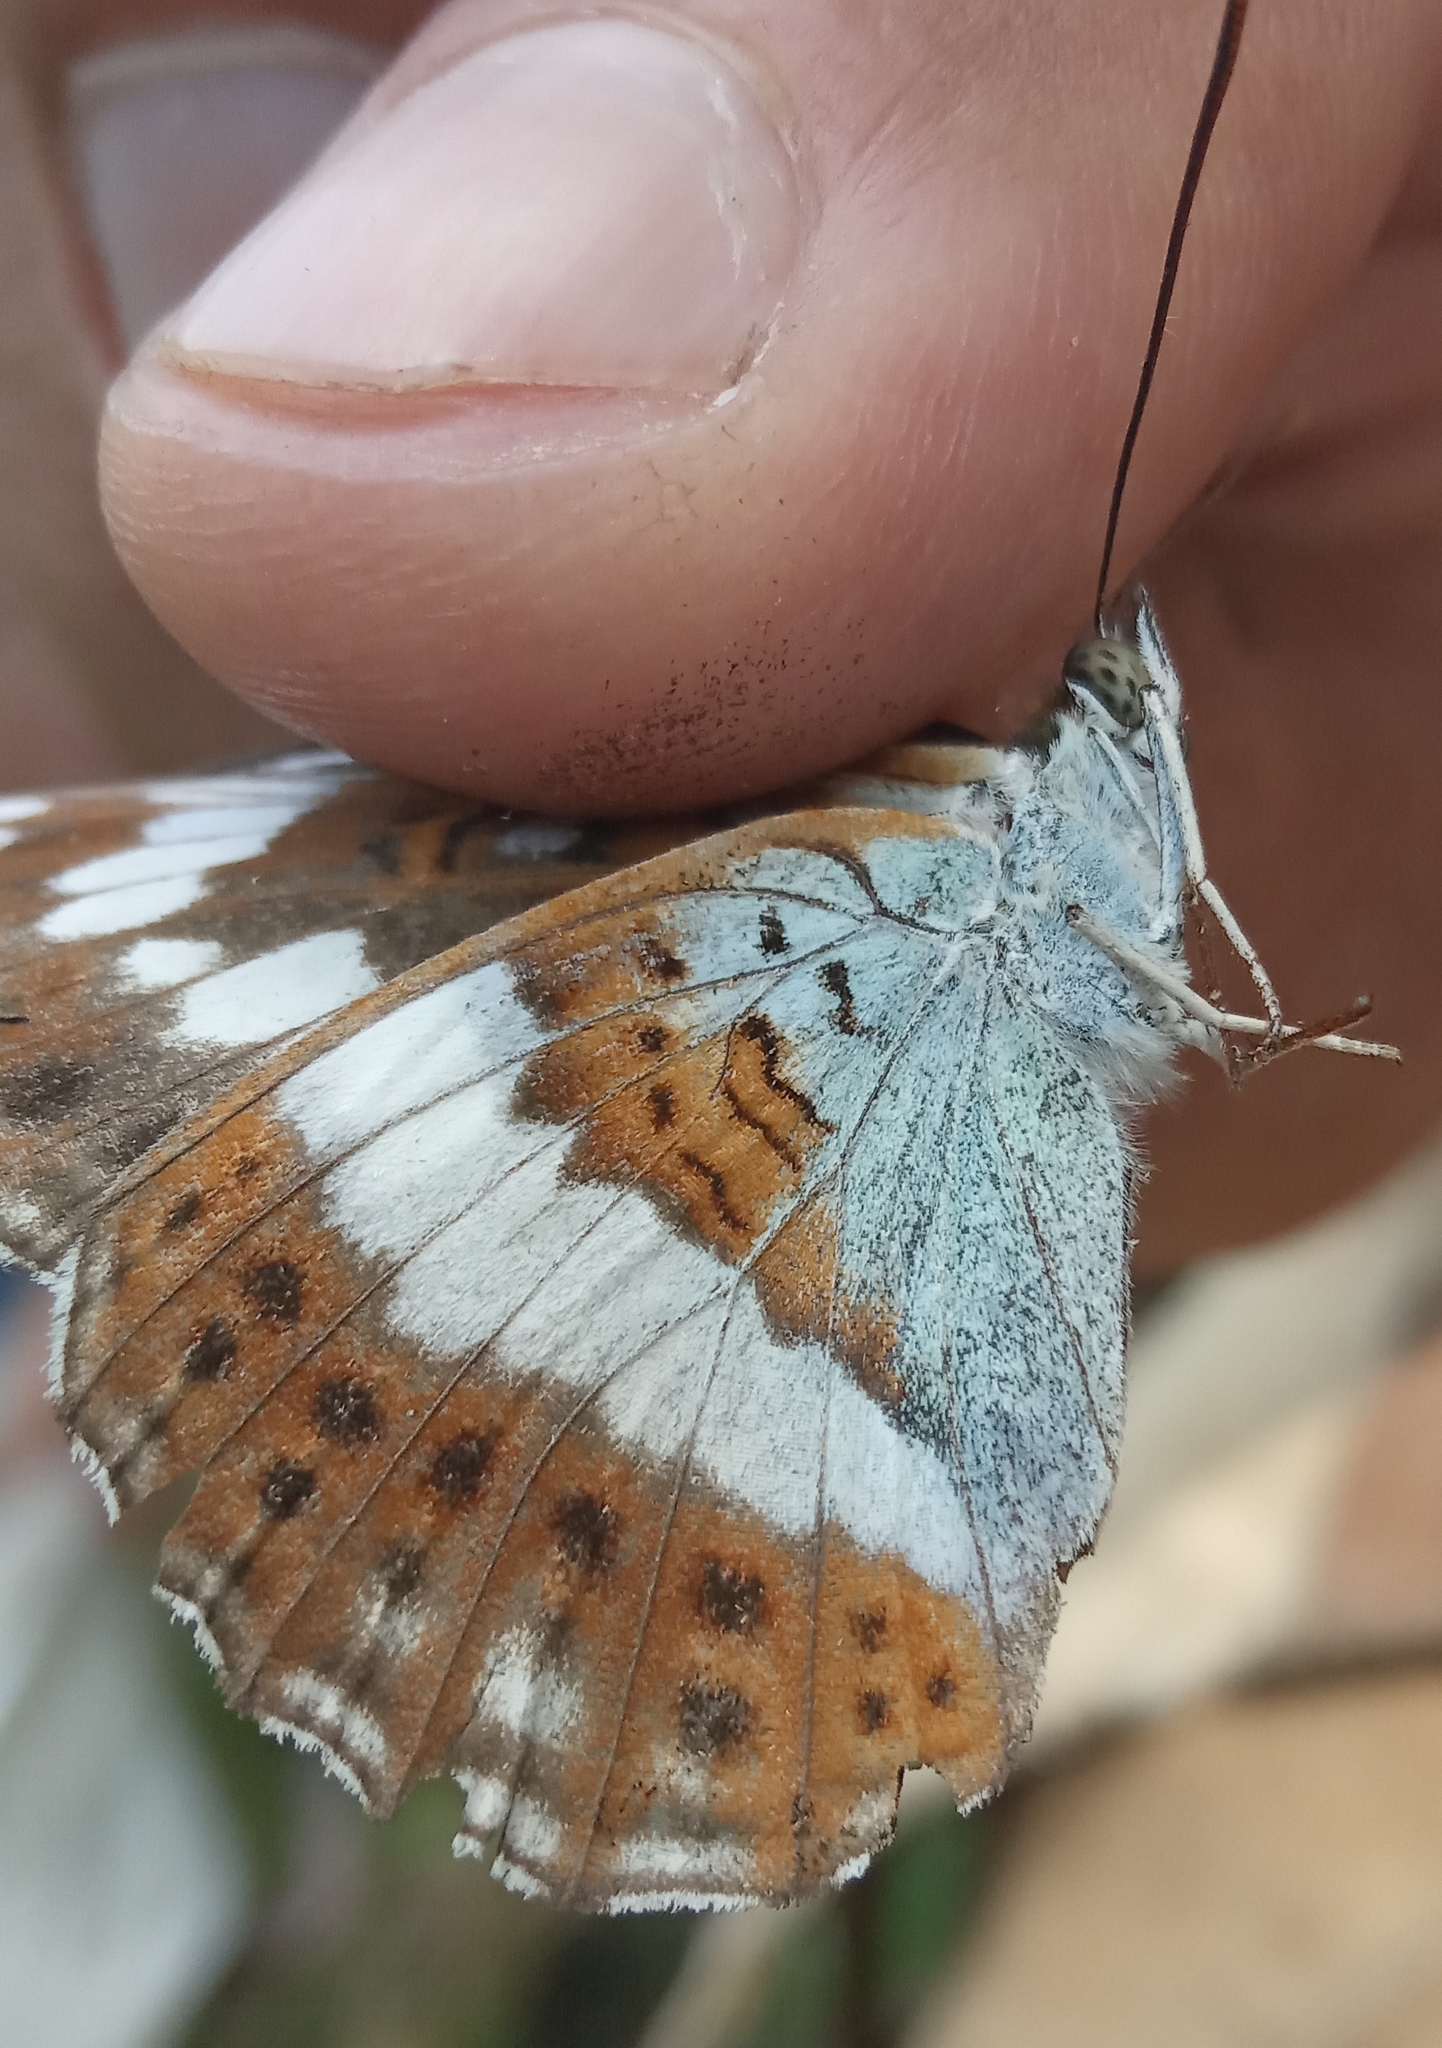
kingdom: Animalia
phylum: Arthropoda
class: Insecta
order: Lepidoptera
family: Nymphalidae
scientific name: Nymphalidae
